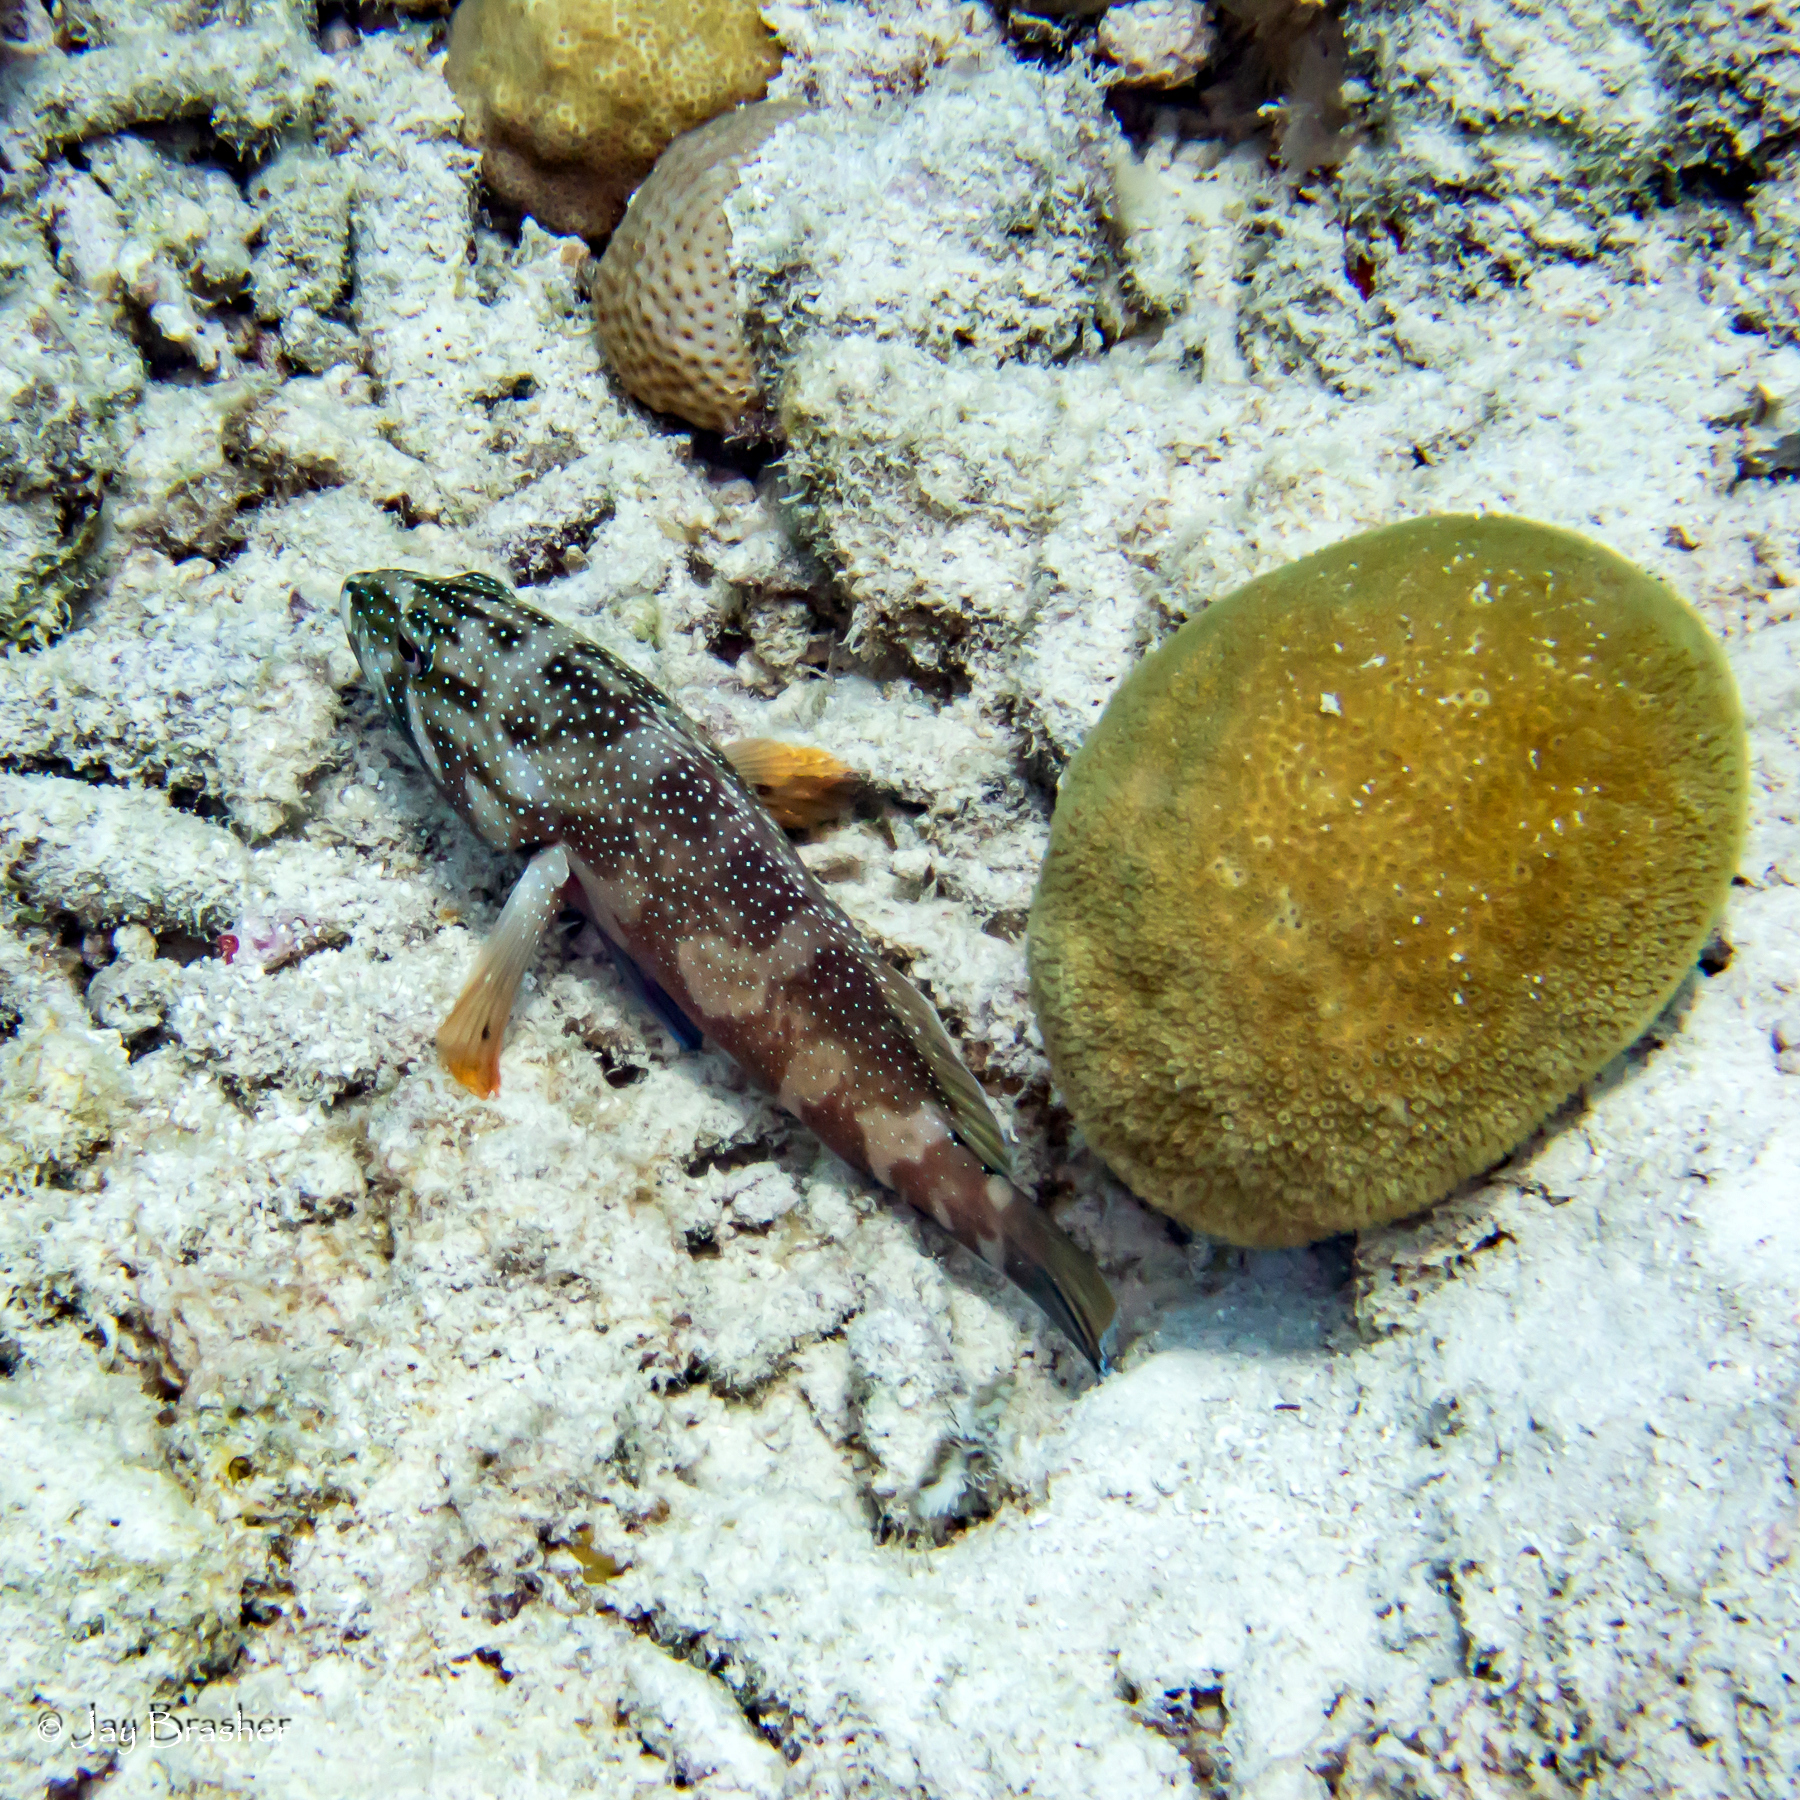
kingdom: Animalia
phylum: Chordata
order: Perciformes
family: Serranidae
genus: Cephalopholis
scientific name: Cephalopholis fulva
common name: Butterfish
